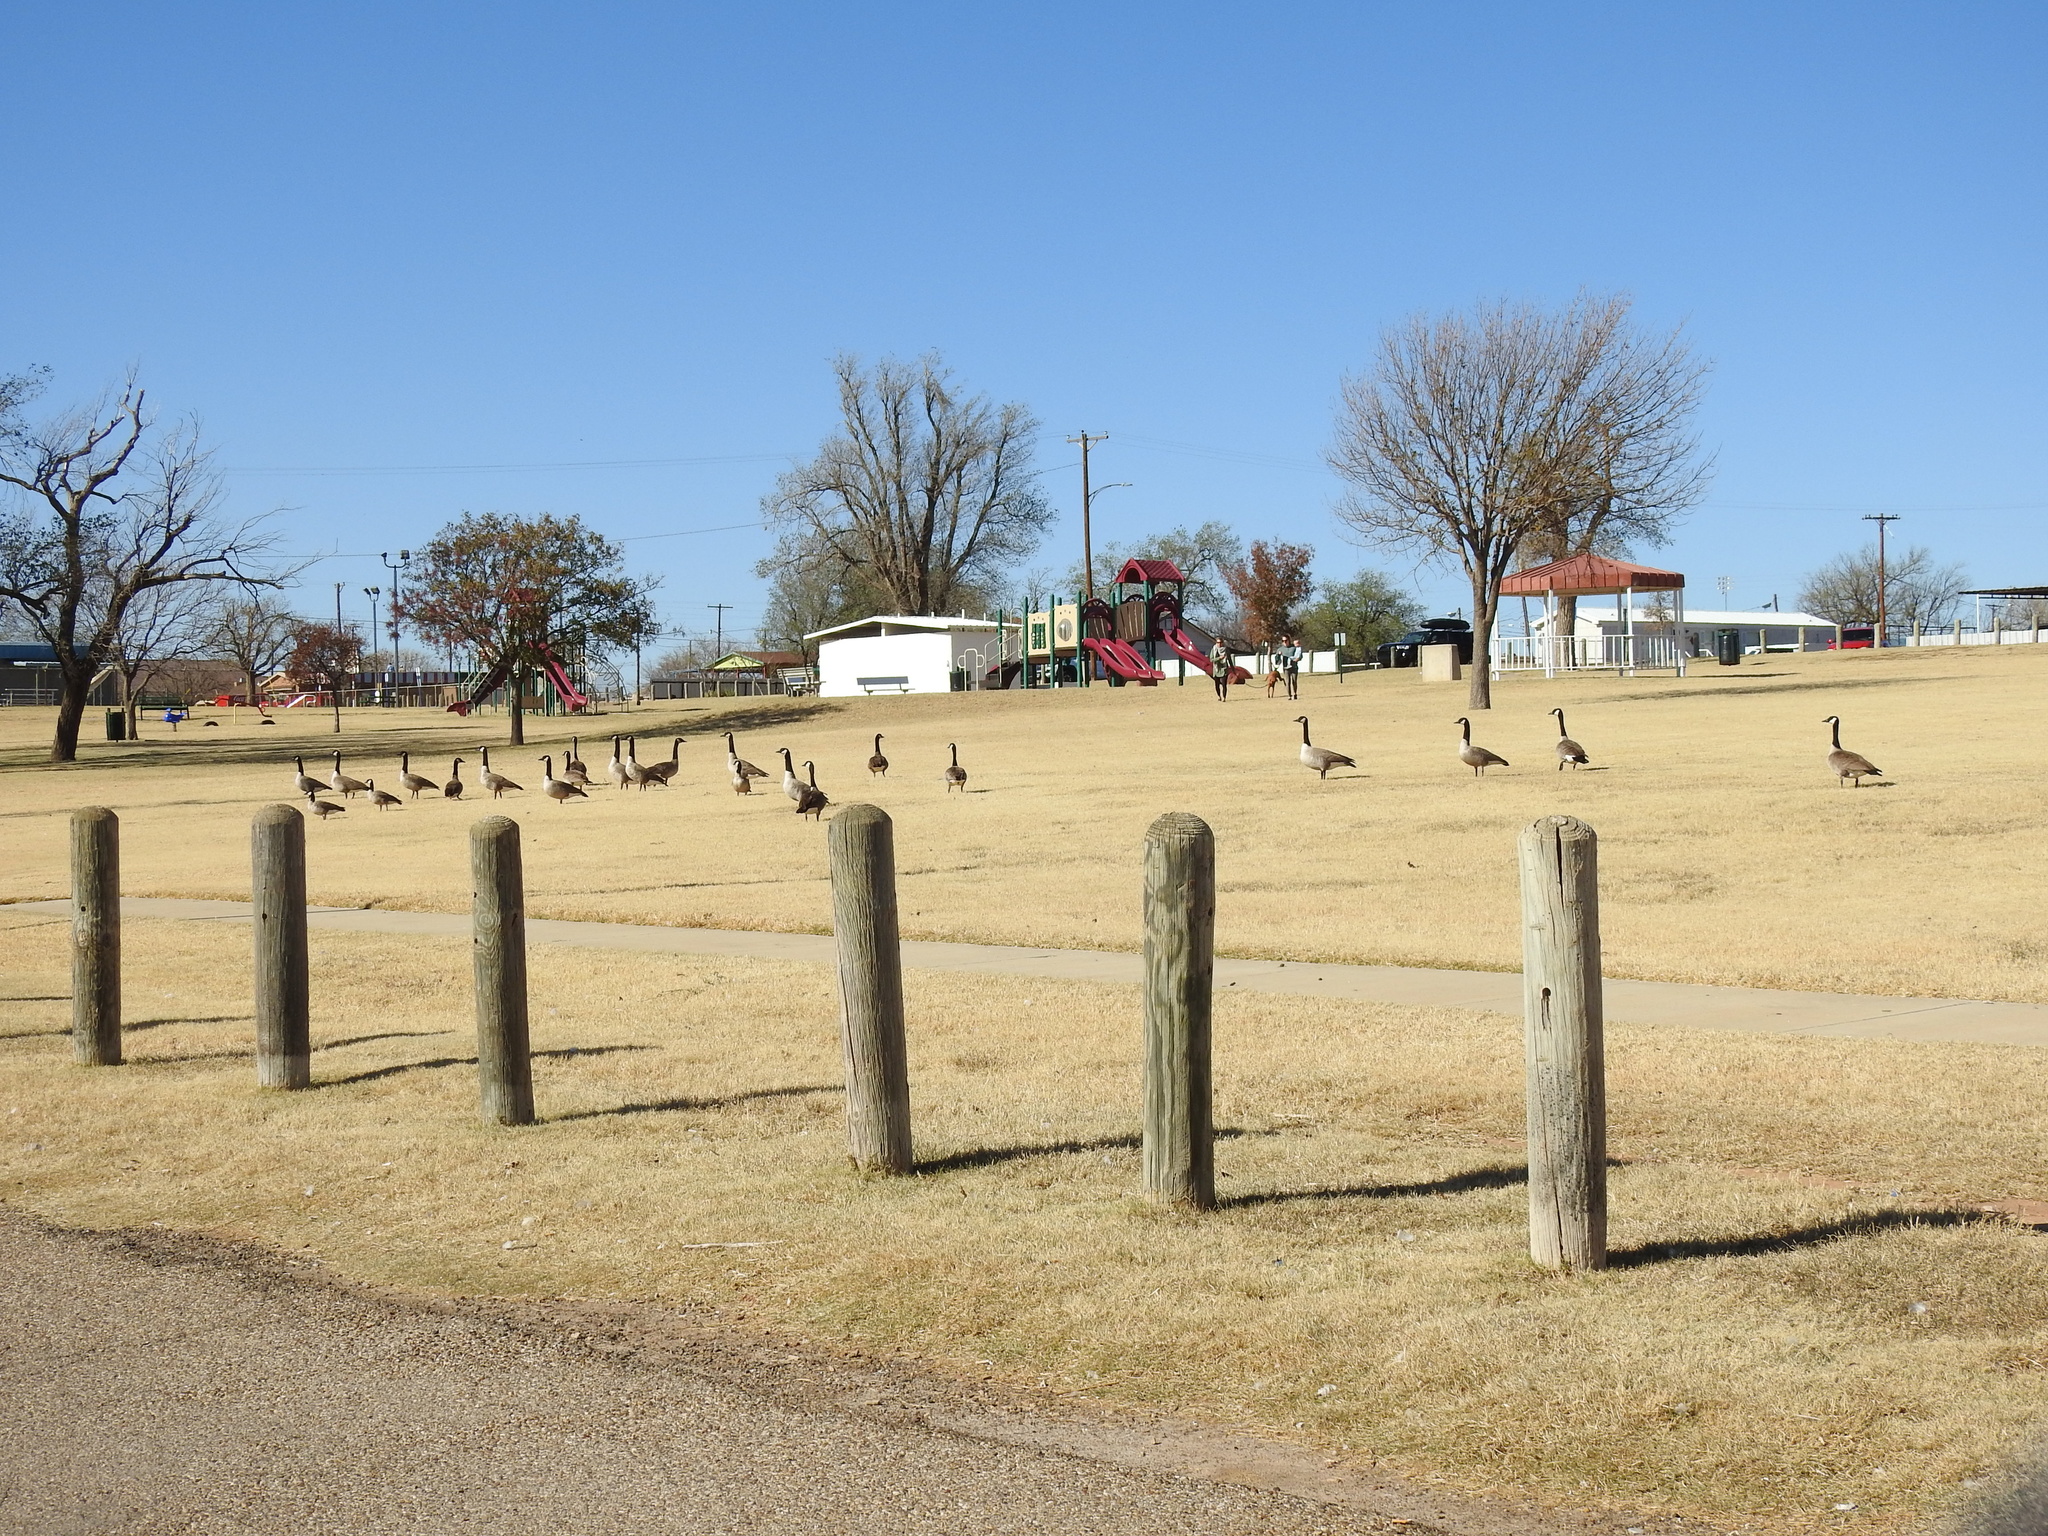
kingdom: Animalia
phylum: Chordata
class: Aves
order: Anseriformes
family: Anatidae
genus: Branta
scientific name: Branta canadensis
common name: Canada goose
